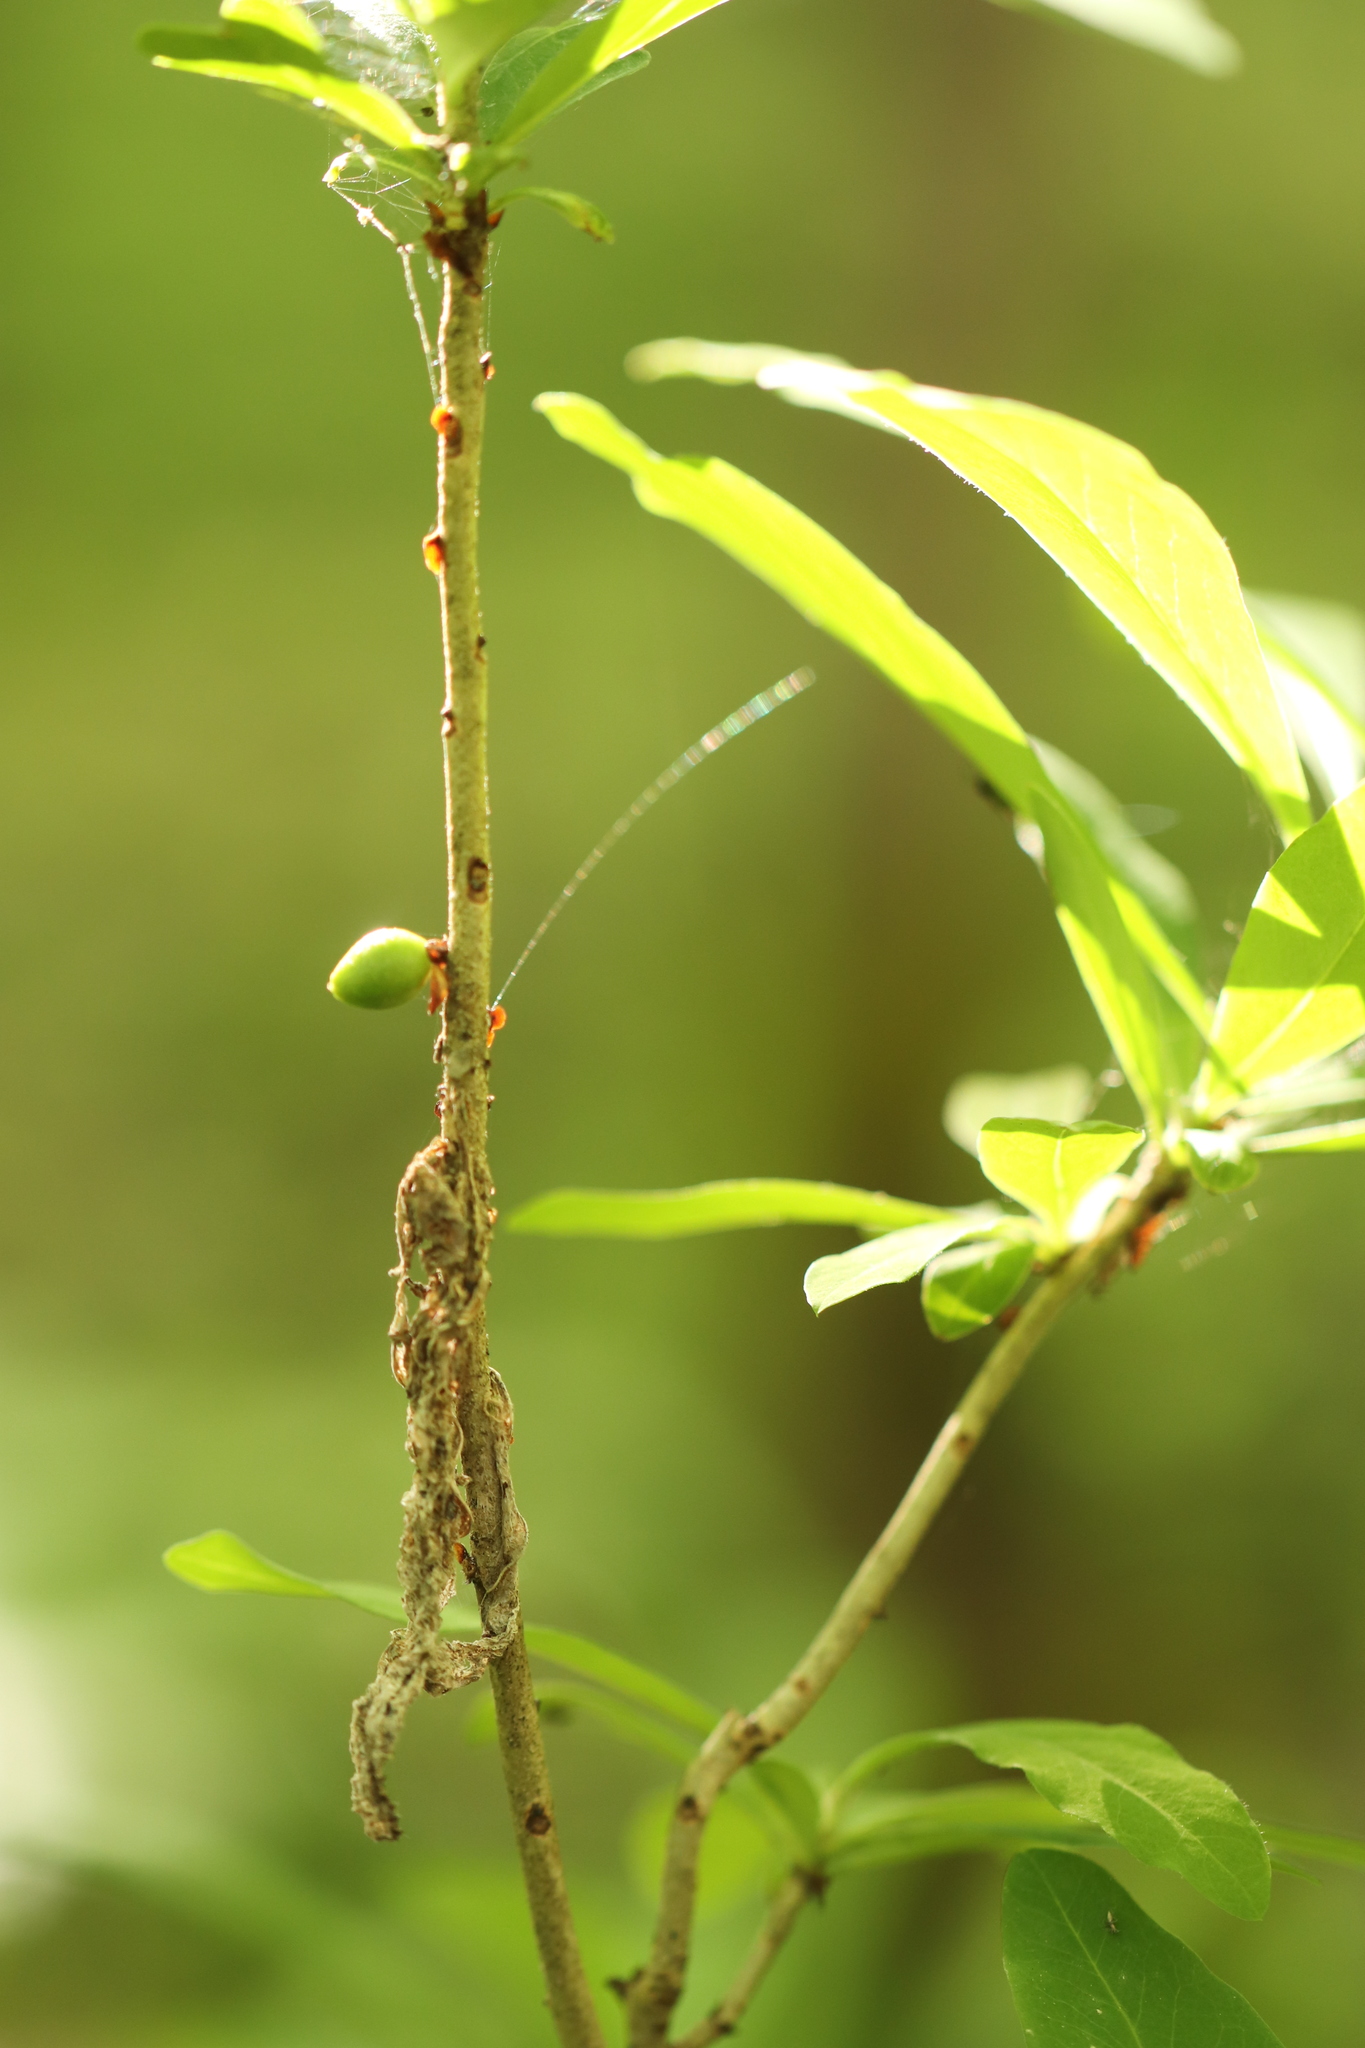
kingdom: Plantae
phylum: Tracheophyta
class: Magnoliopsida
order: Malvales
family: Thymelaeaceae
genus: Daphne
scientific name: Daphne mezereum
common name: Mezereon
